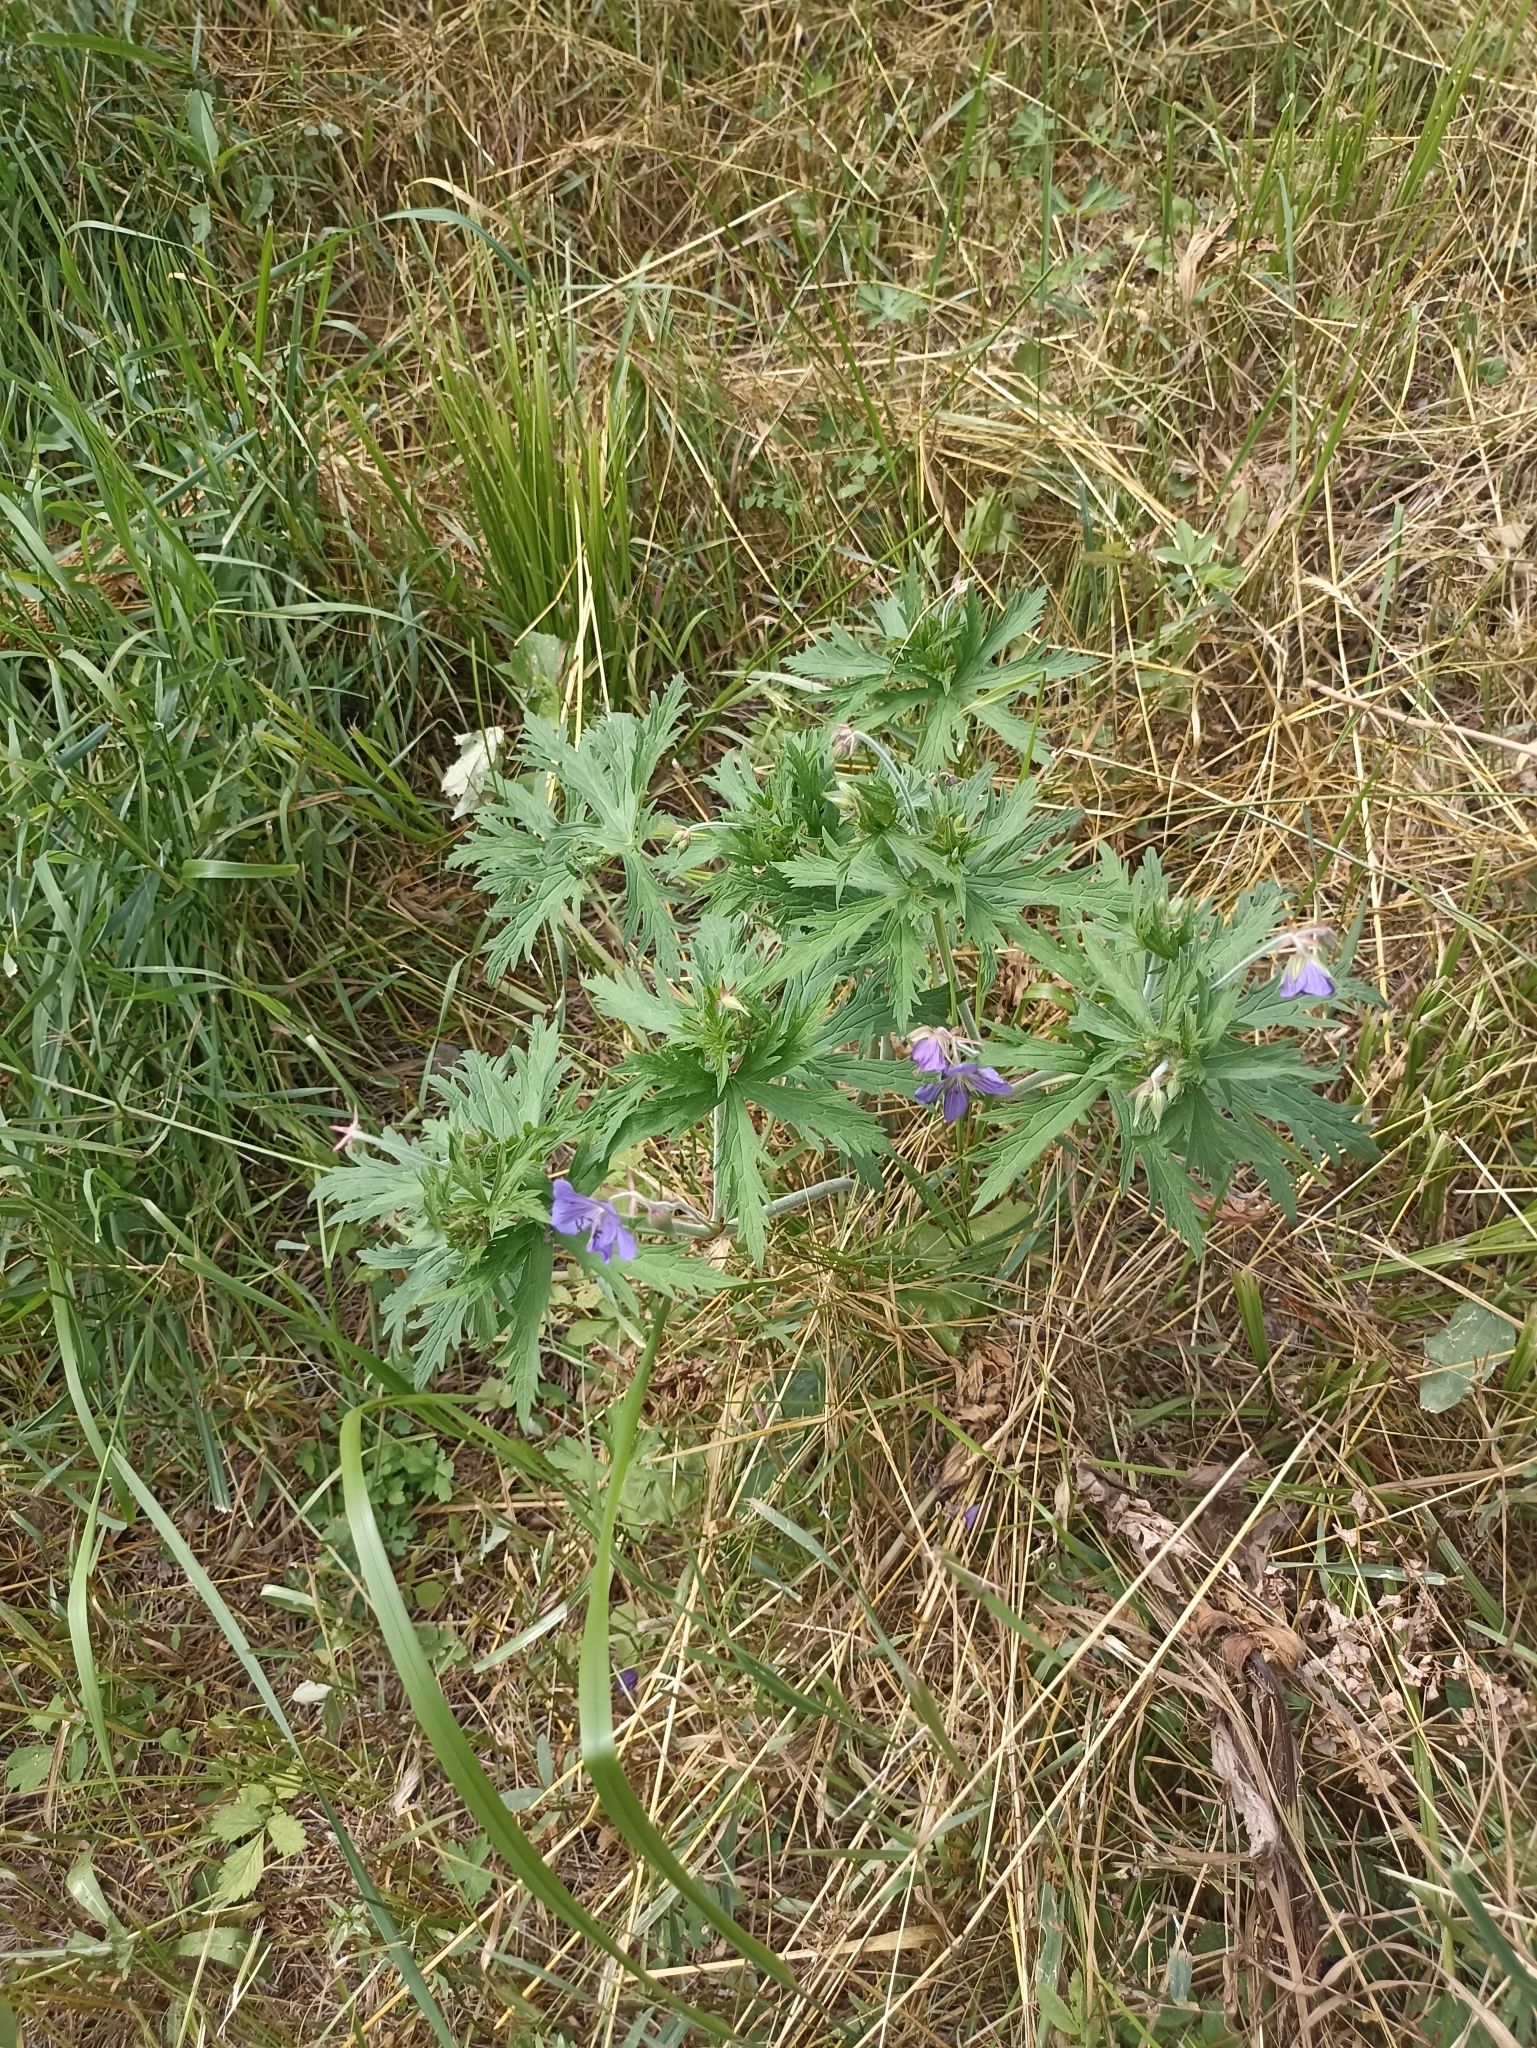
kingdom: Plantae
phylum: Tracheophyta
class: Magnoliopsida
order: Geraniales
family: Geraniaceae
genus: Geranium
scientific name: Geranium pratense
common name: Meadow crane's-bill
